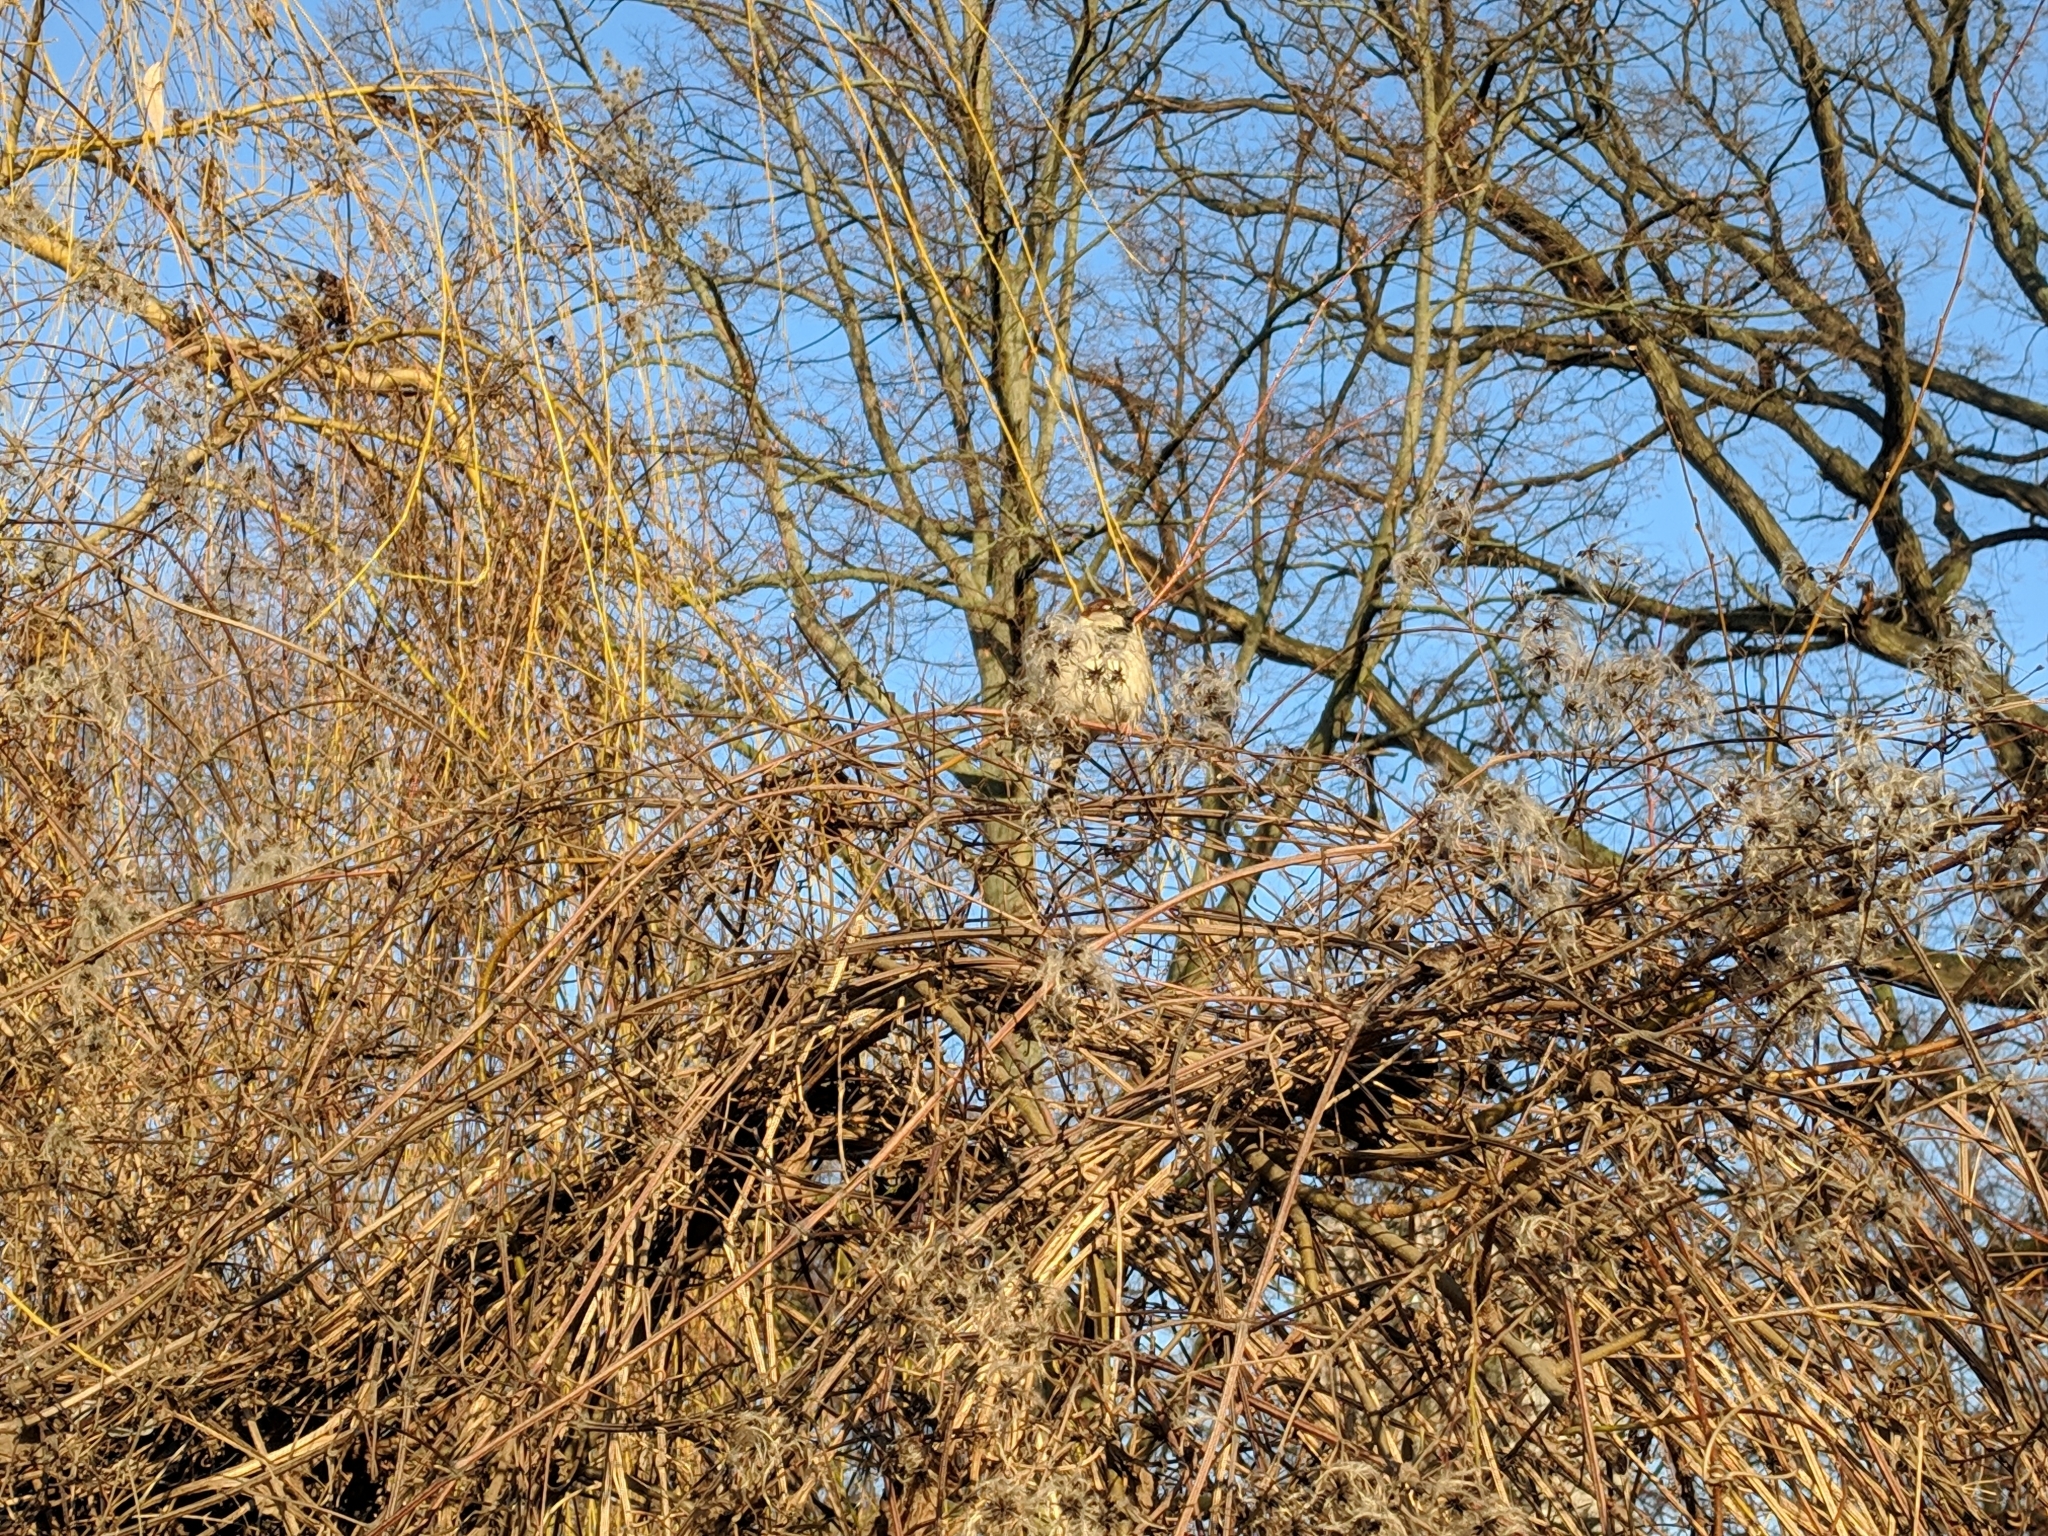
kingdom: Animalia
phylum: Chordata
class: Aves
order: Passeriformes
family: Passeridae
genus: Passer
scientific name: Passer domesticus
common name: House sparrow
